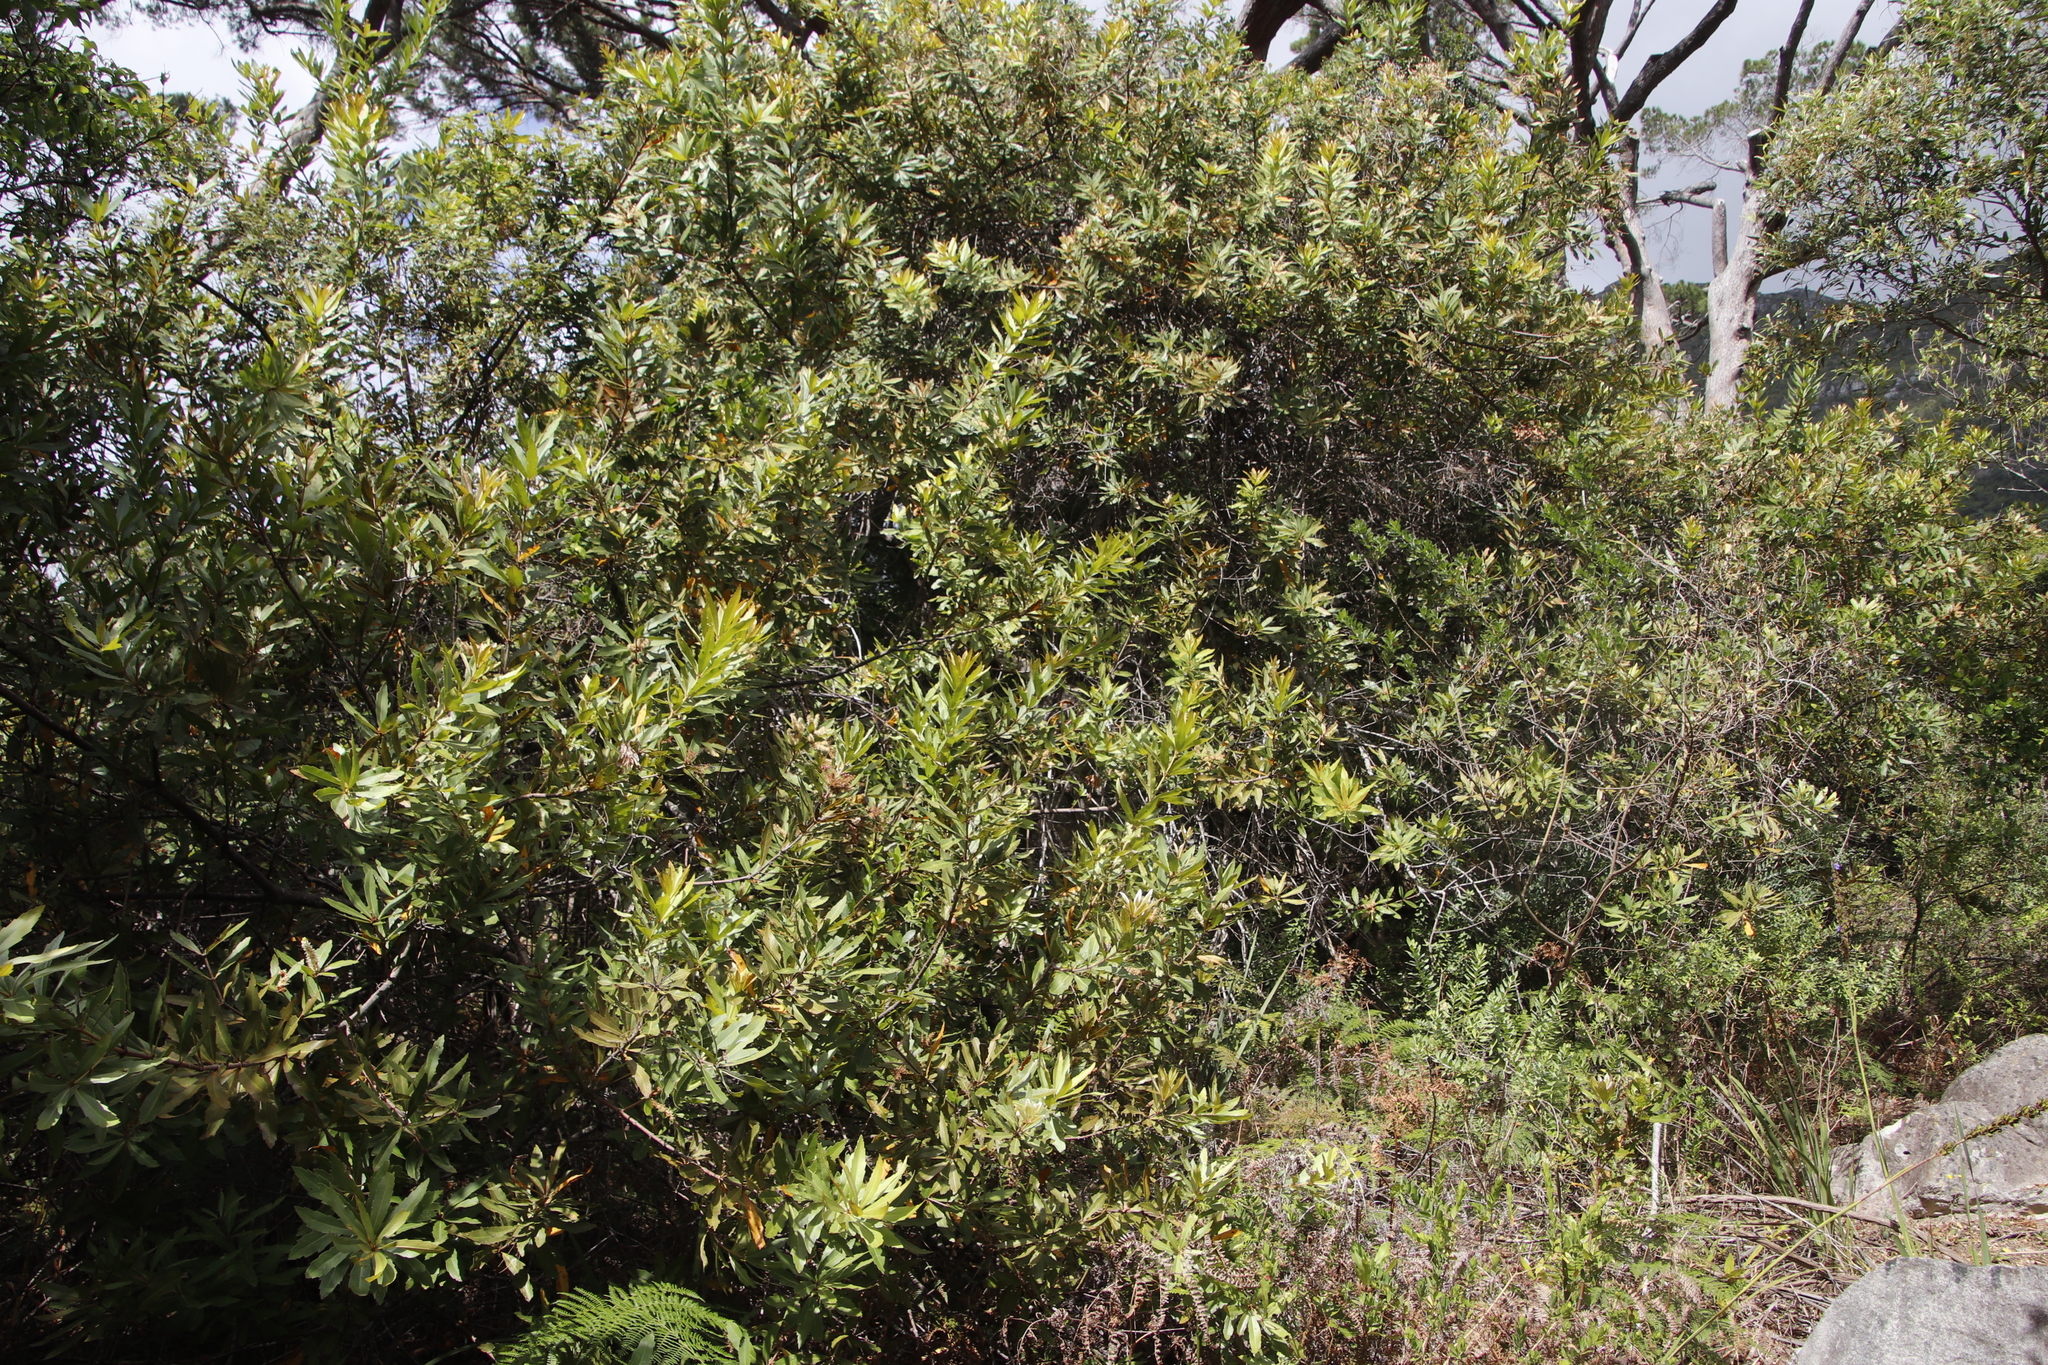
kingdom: Plantae
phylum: Tracheophyta
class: Magnoliopsida
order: Proteales
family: Proteaceae
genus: Brabejum
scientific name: Brabejum stellatifolium
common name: Wild almond
